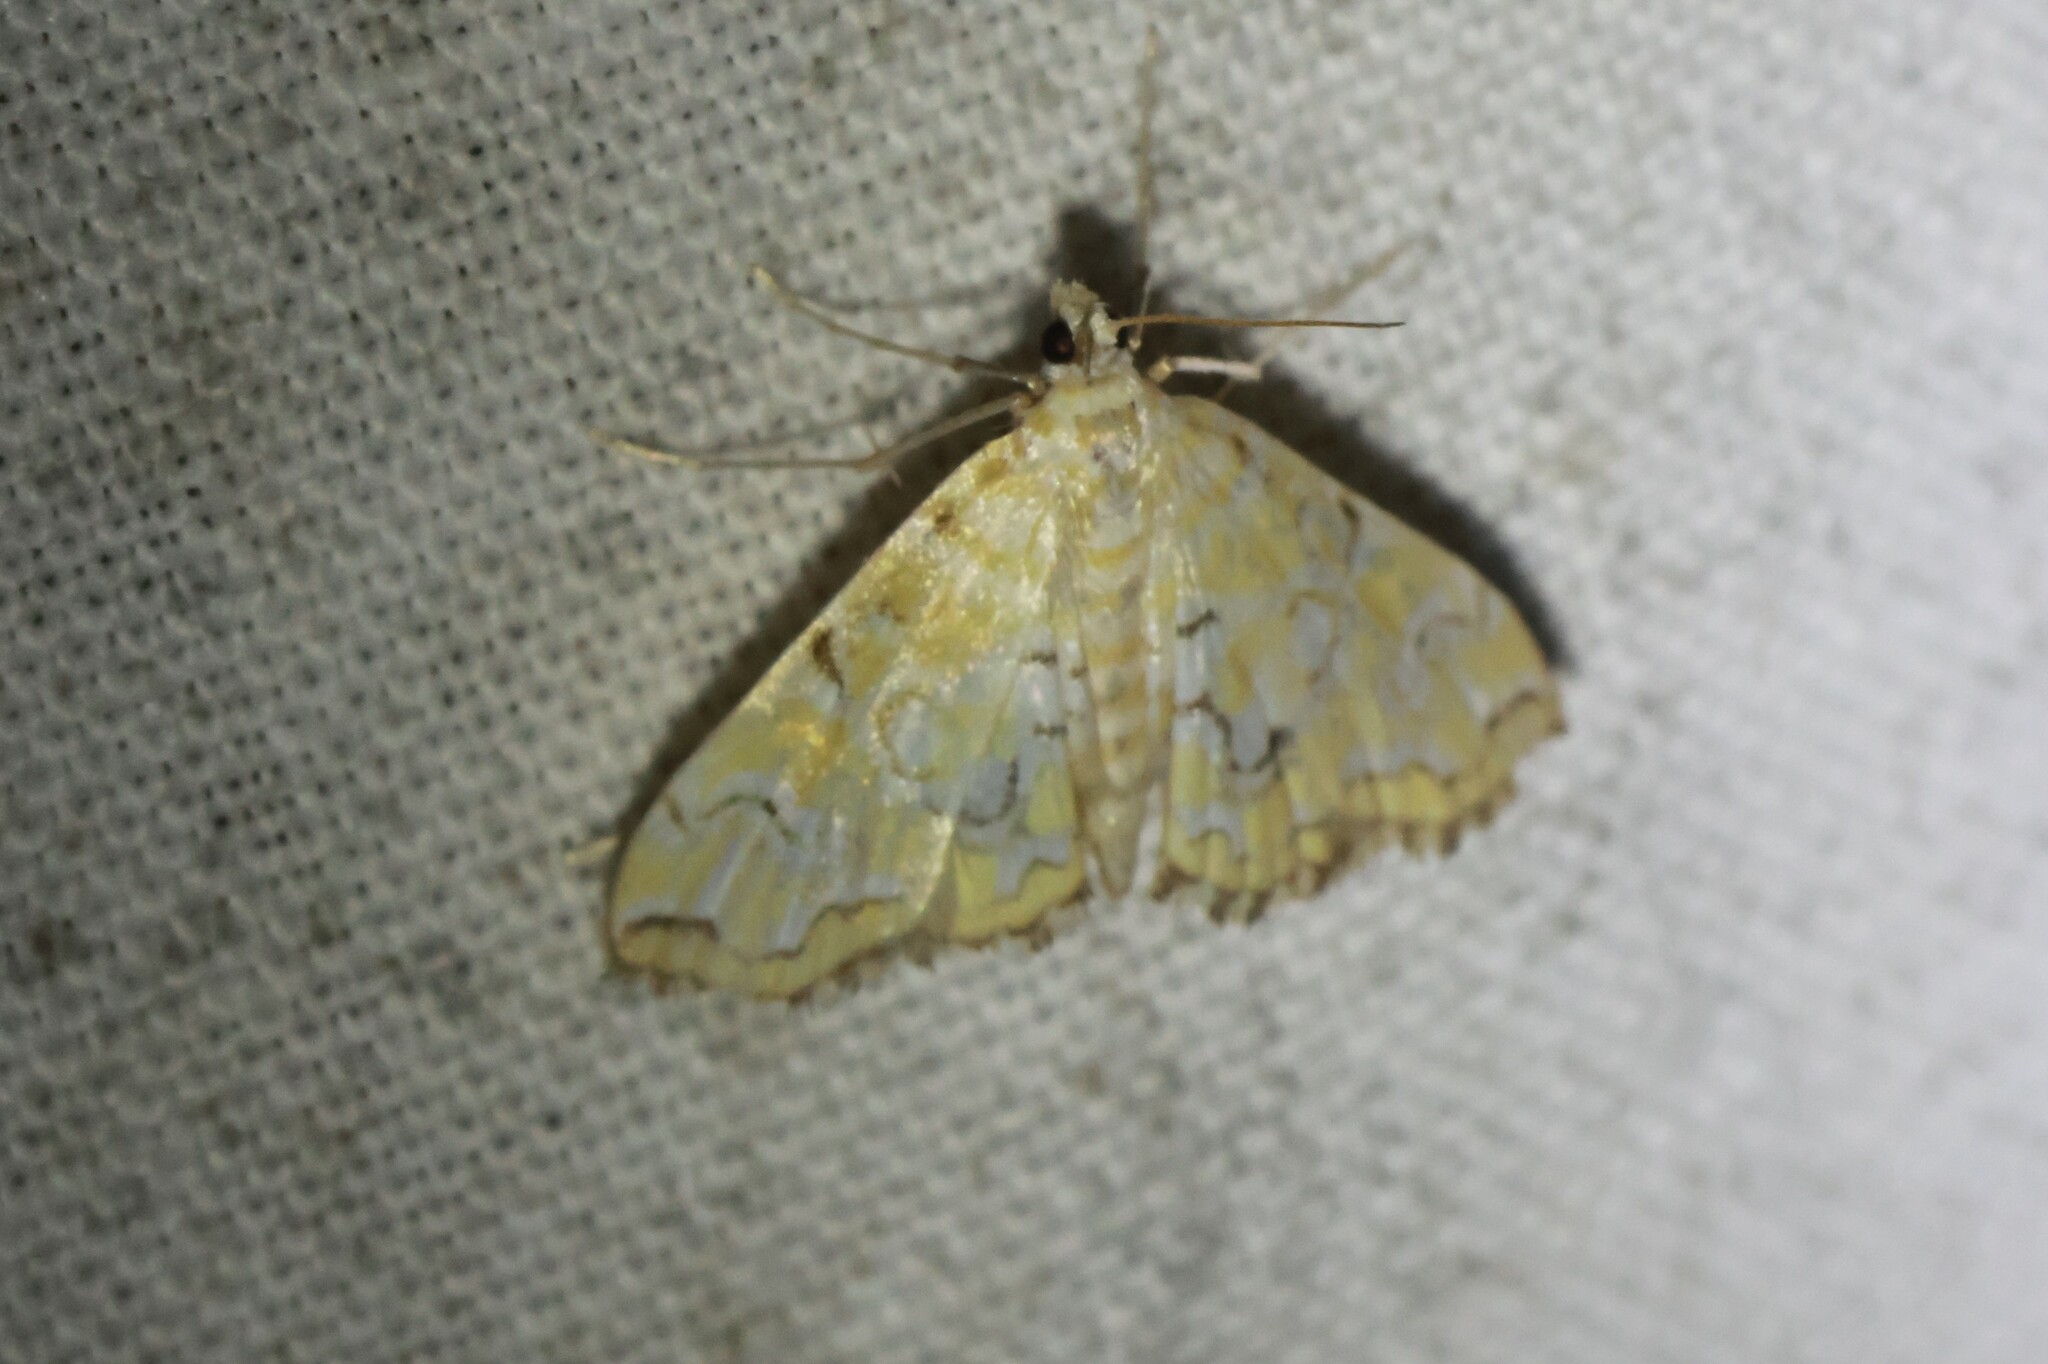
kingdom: Animalia
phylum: Arthropoda
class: Insecta
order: Lepidoptera
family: Crambidae
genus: Elophila
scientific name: Elophila icciusalis
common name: Pondside pyralid moth
